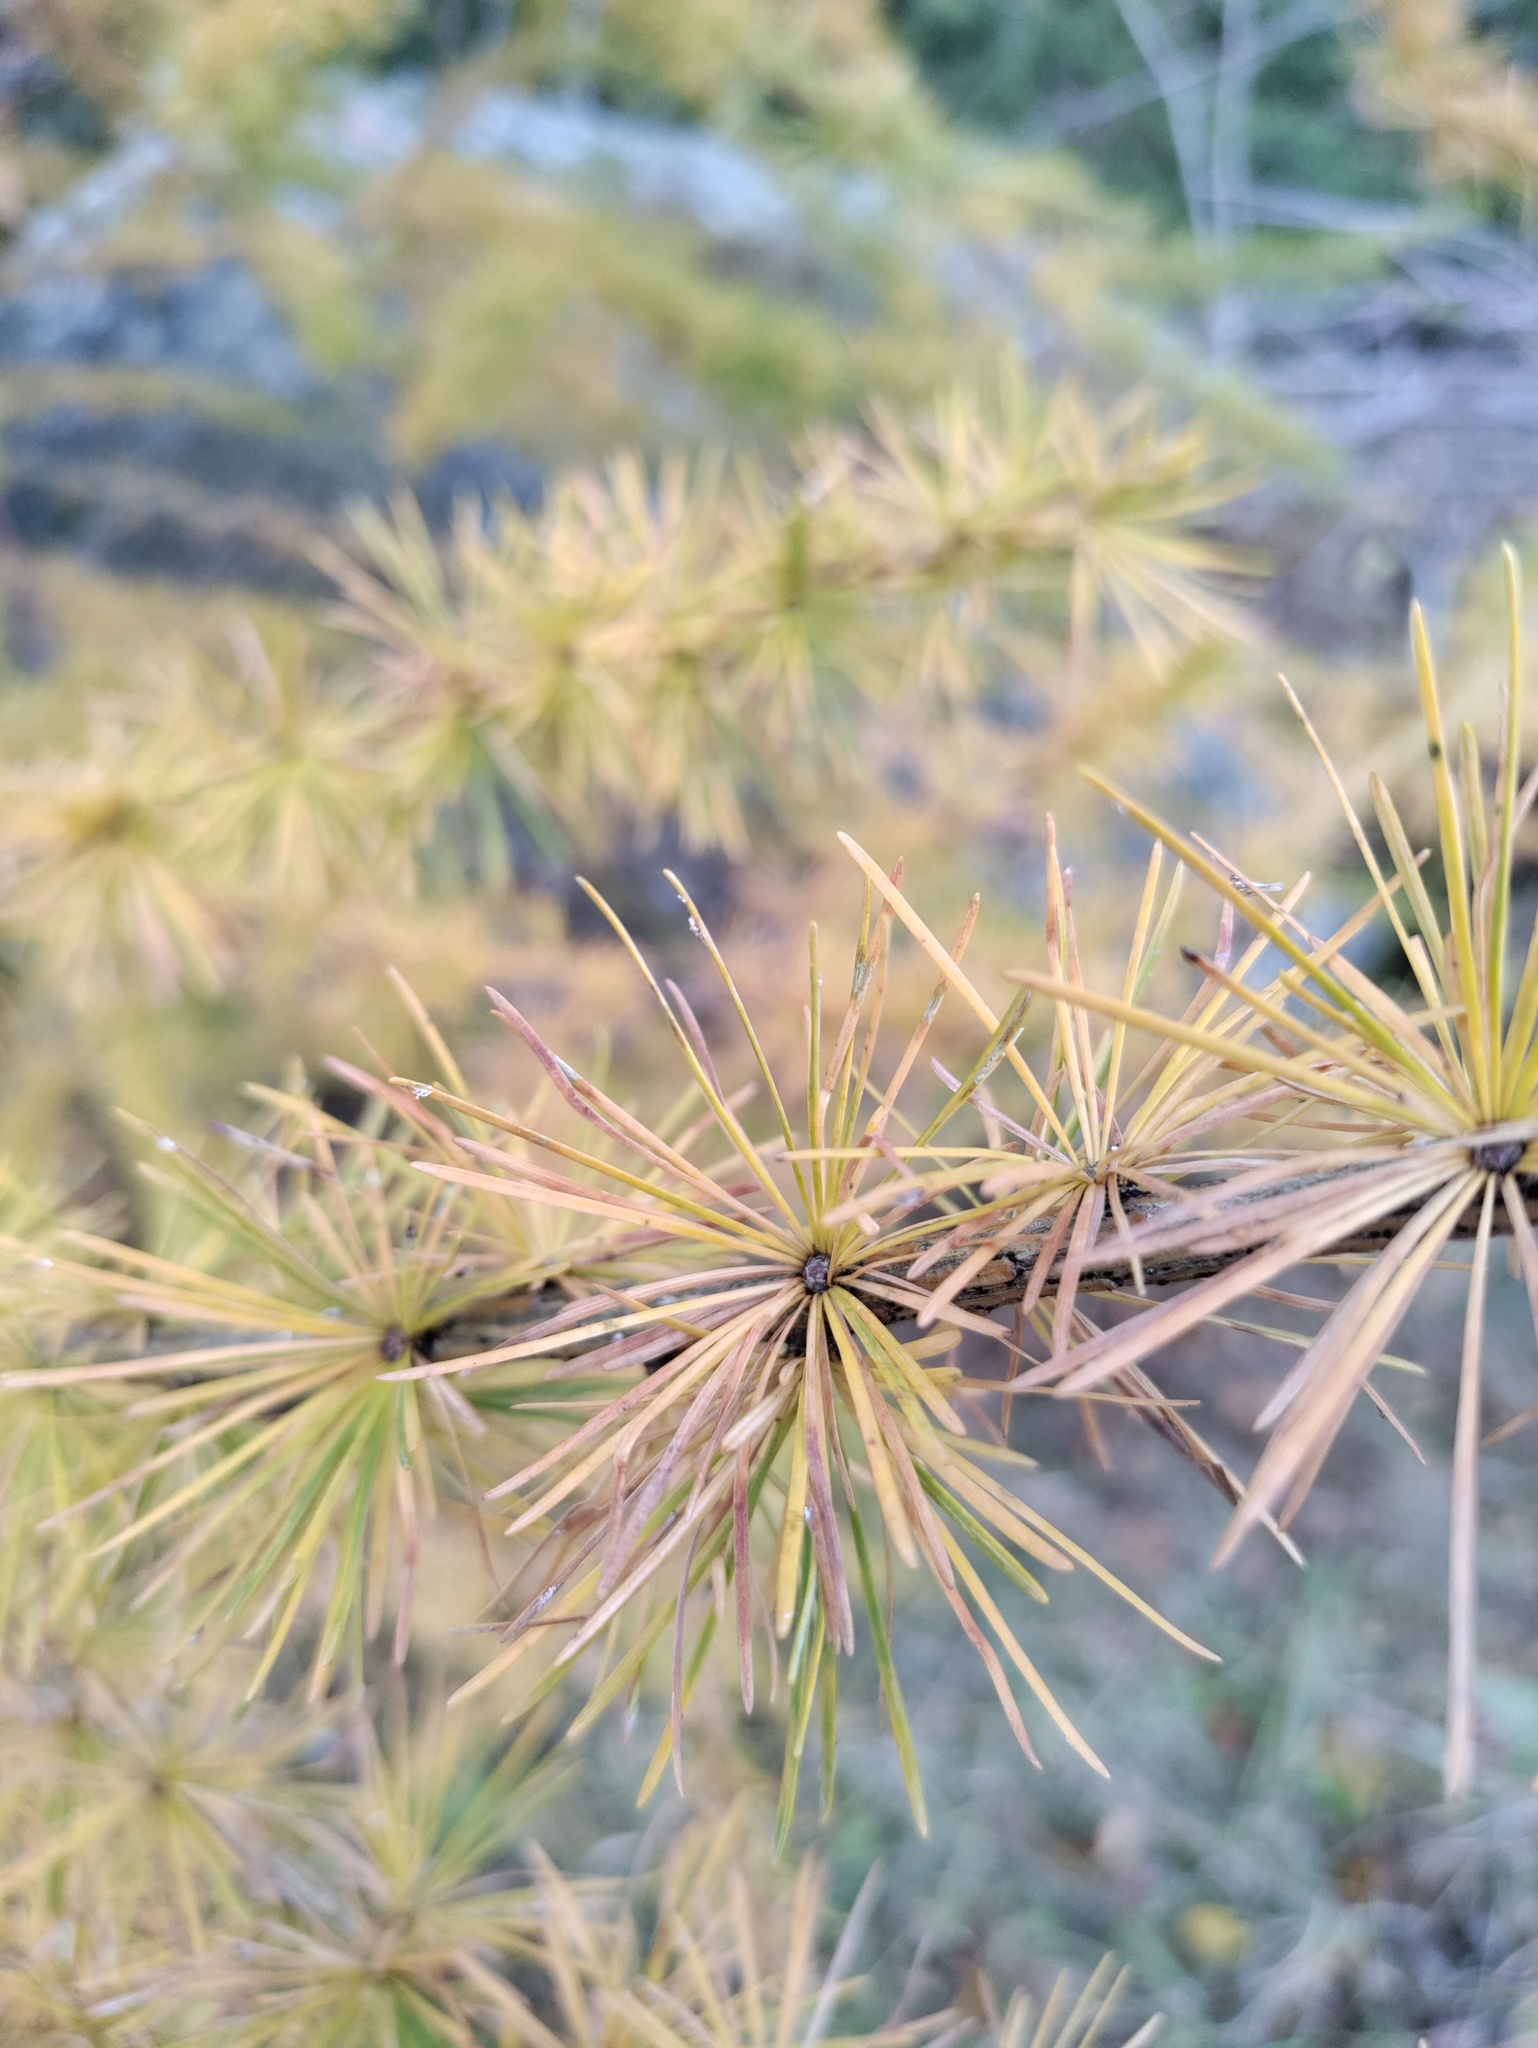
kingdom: Plantae
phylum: Tracheophyta
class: Pinopsida
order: Pinales
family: Pinaceae
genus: Larix
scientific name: Larix decidua
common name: European larch
